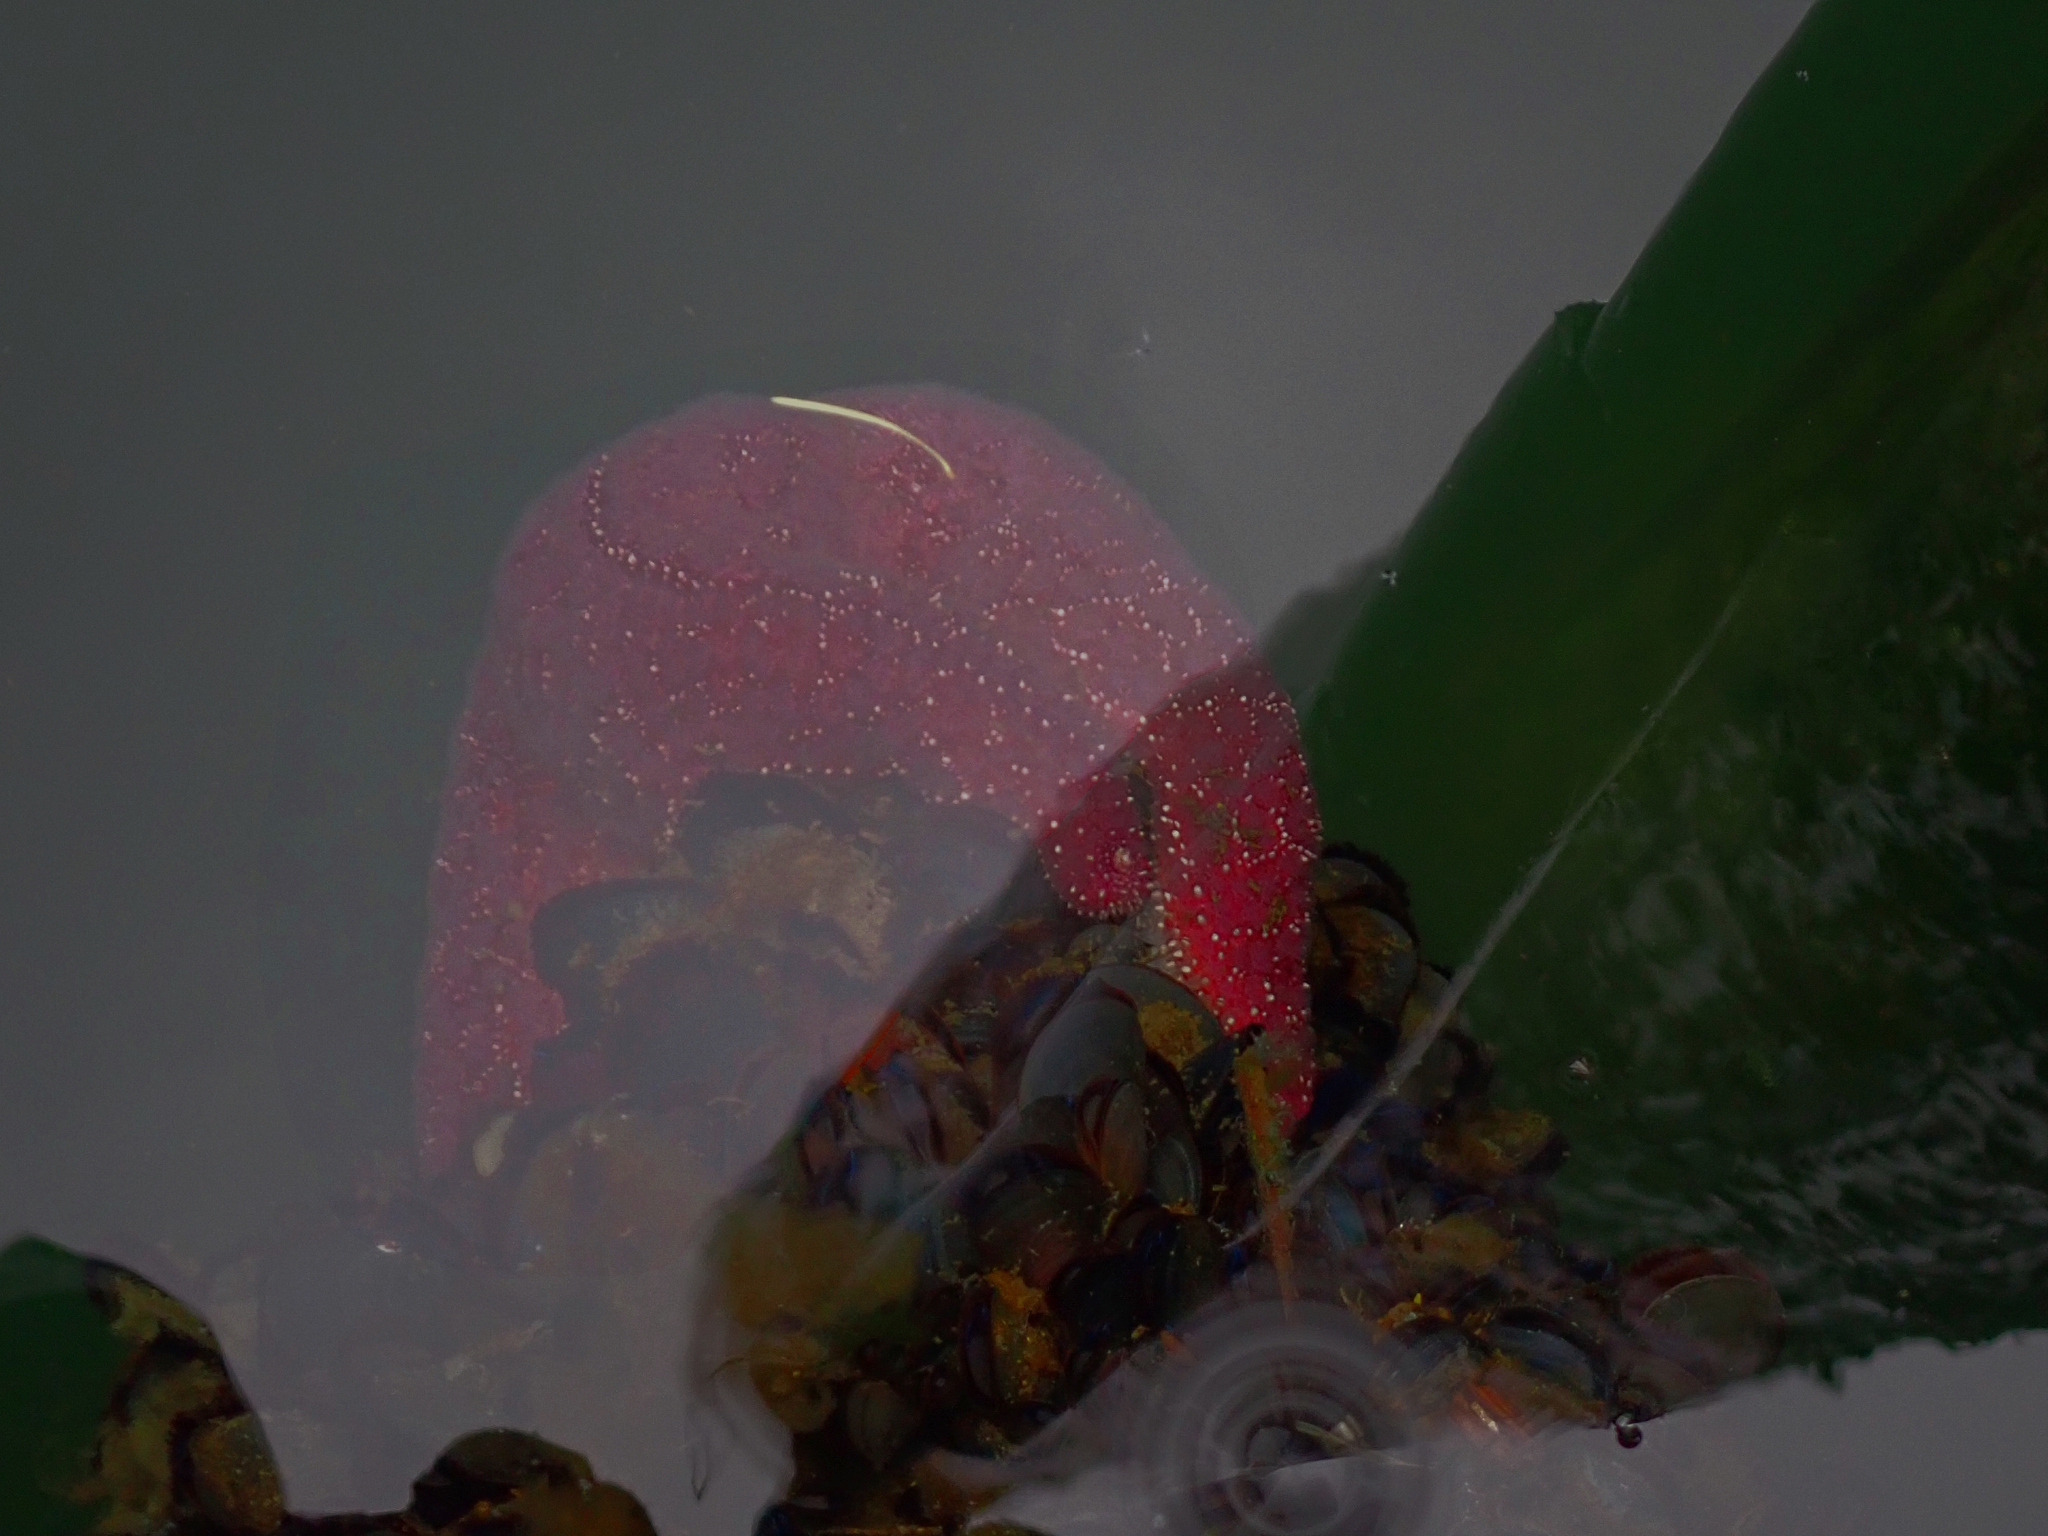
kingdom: Animalia
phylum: Echinodermata
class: Asteroidea
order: Forcipulatida
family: Asteriidae
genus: Pisaster
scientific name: Pisaster ochraceus
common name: Ochre stars
